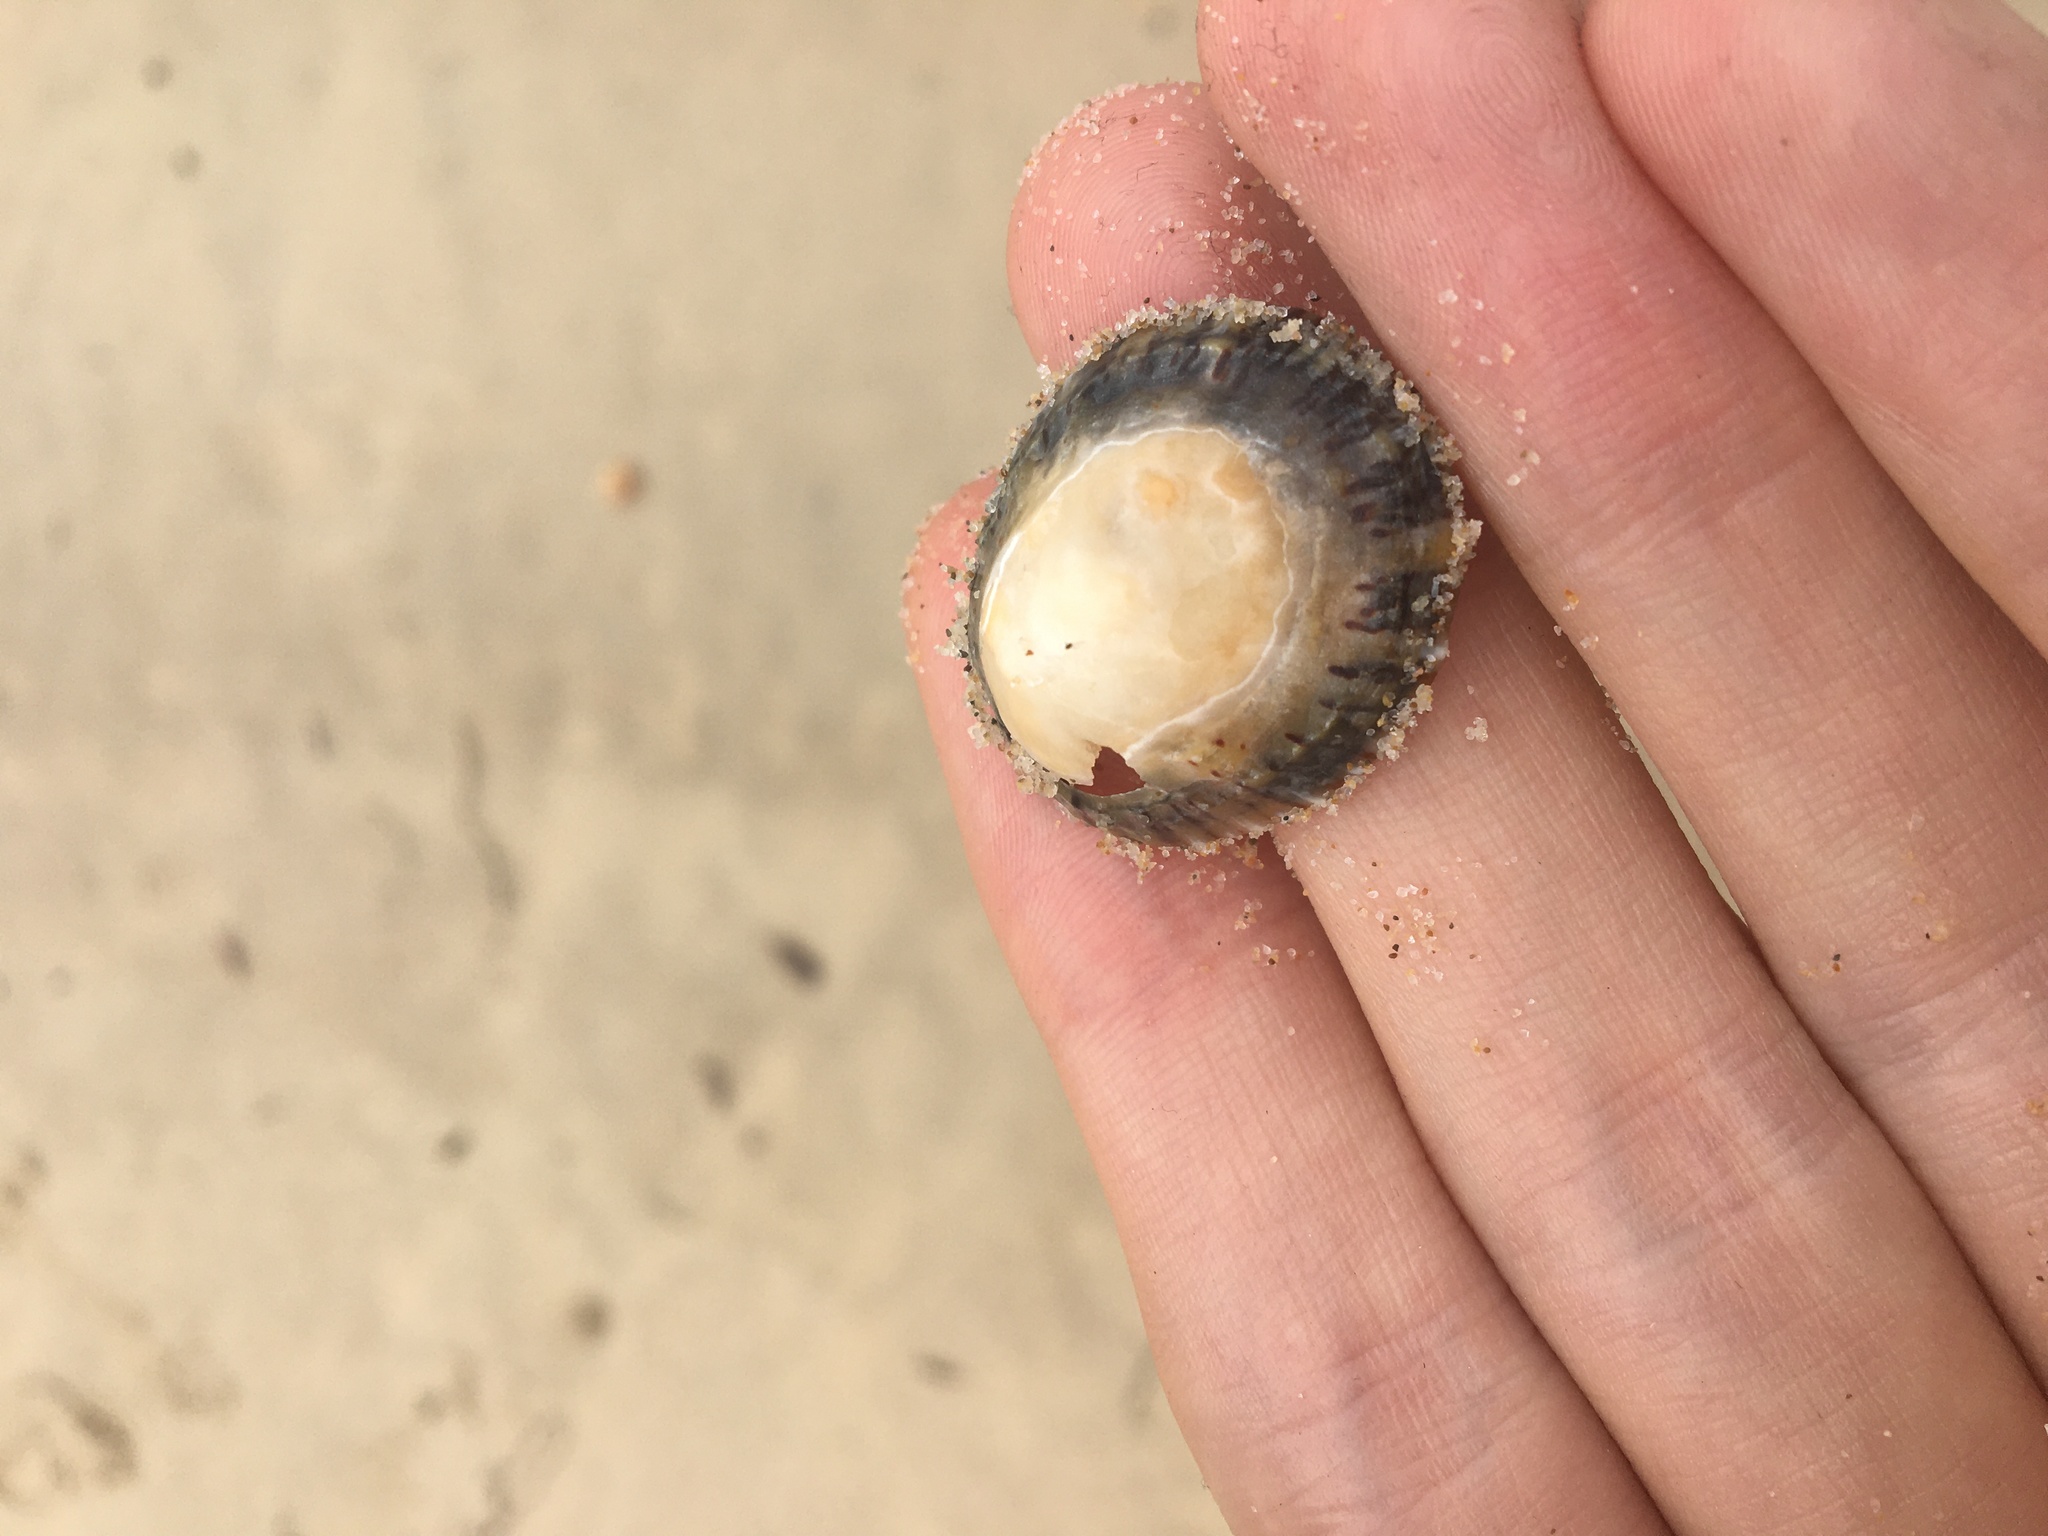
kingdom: Animalia
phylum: Mollusca
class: Gastropoda
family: Nacellidae
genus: Cellana
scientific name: Cellana tramoserica
